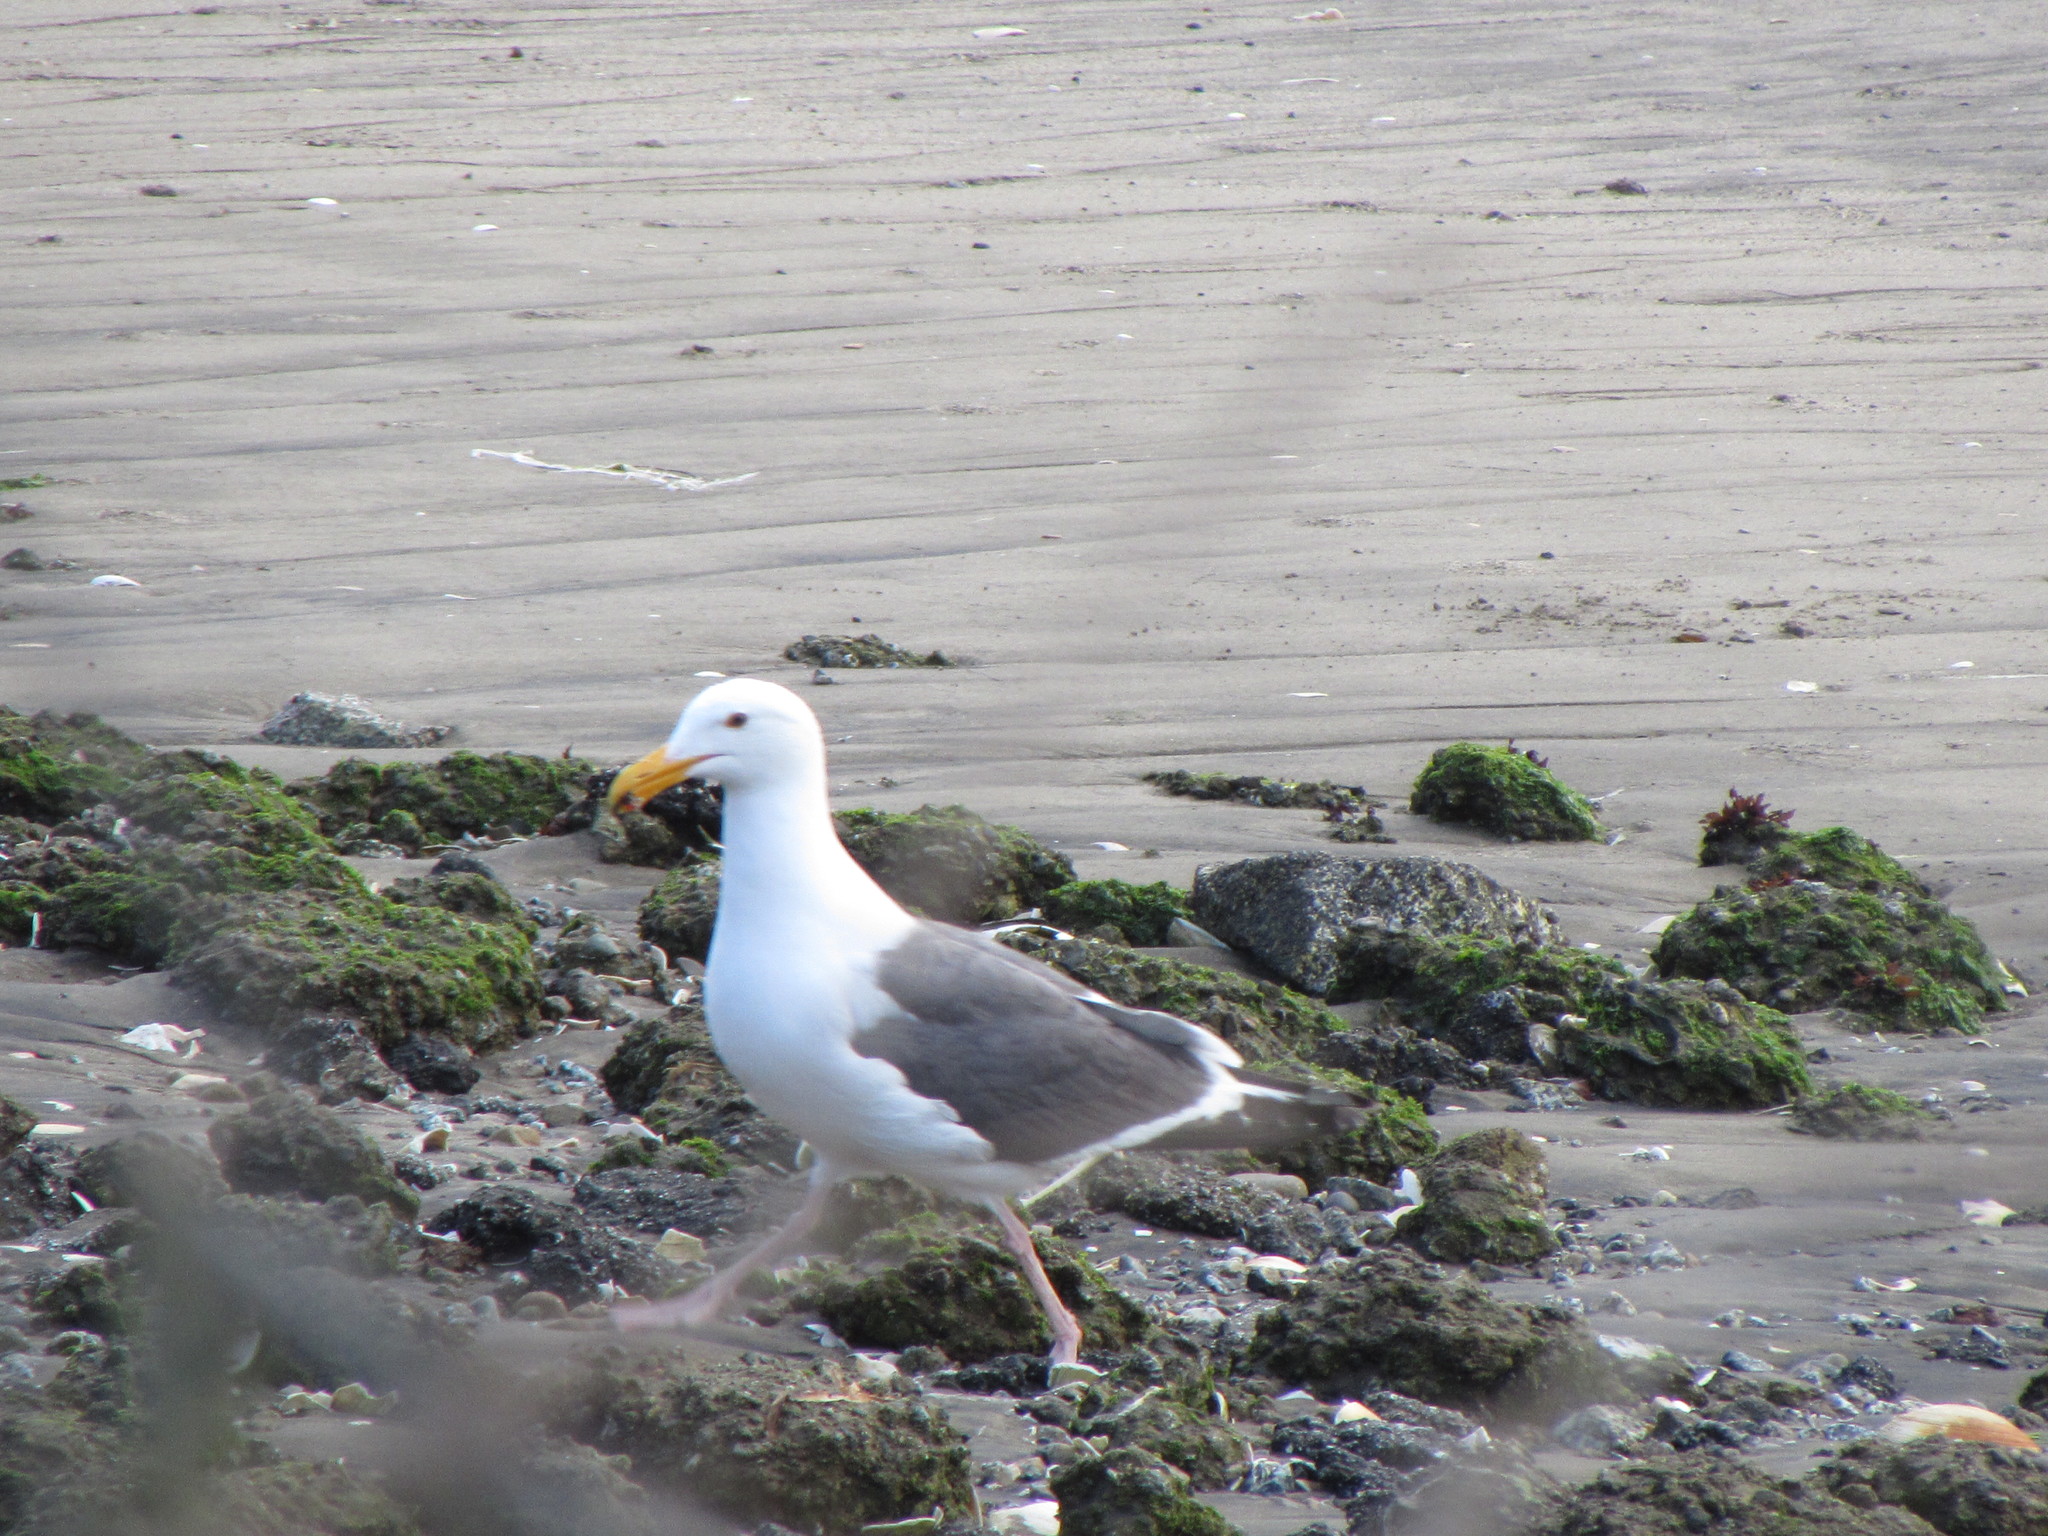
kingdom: Animalia
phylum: Chordata
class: Aves
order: Charadriiformes
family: Laridae
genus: Larus
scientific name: Larus occidentalis
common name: Western gull
